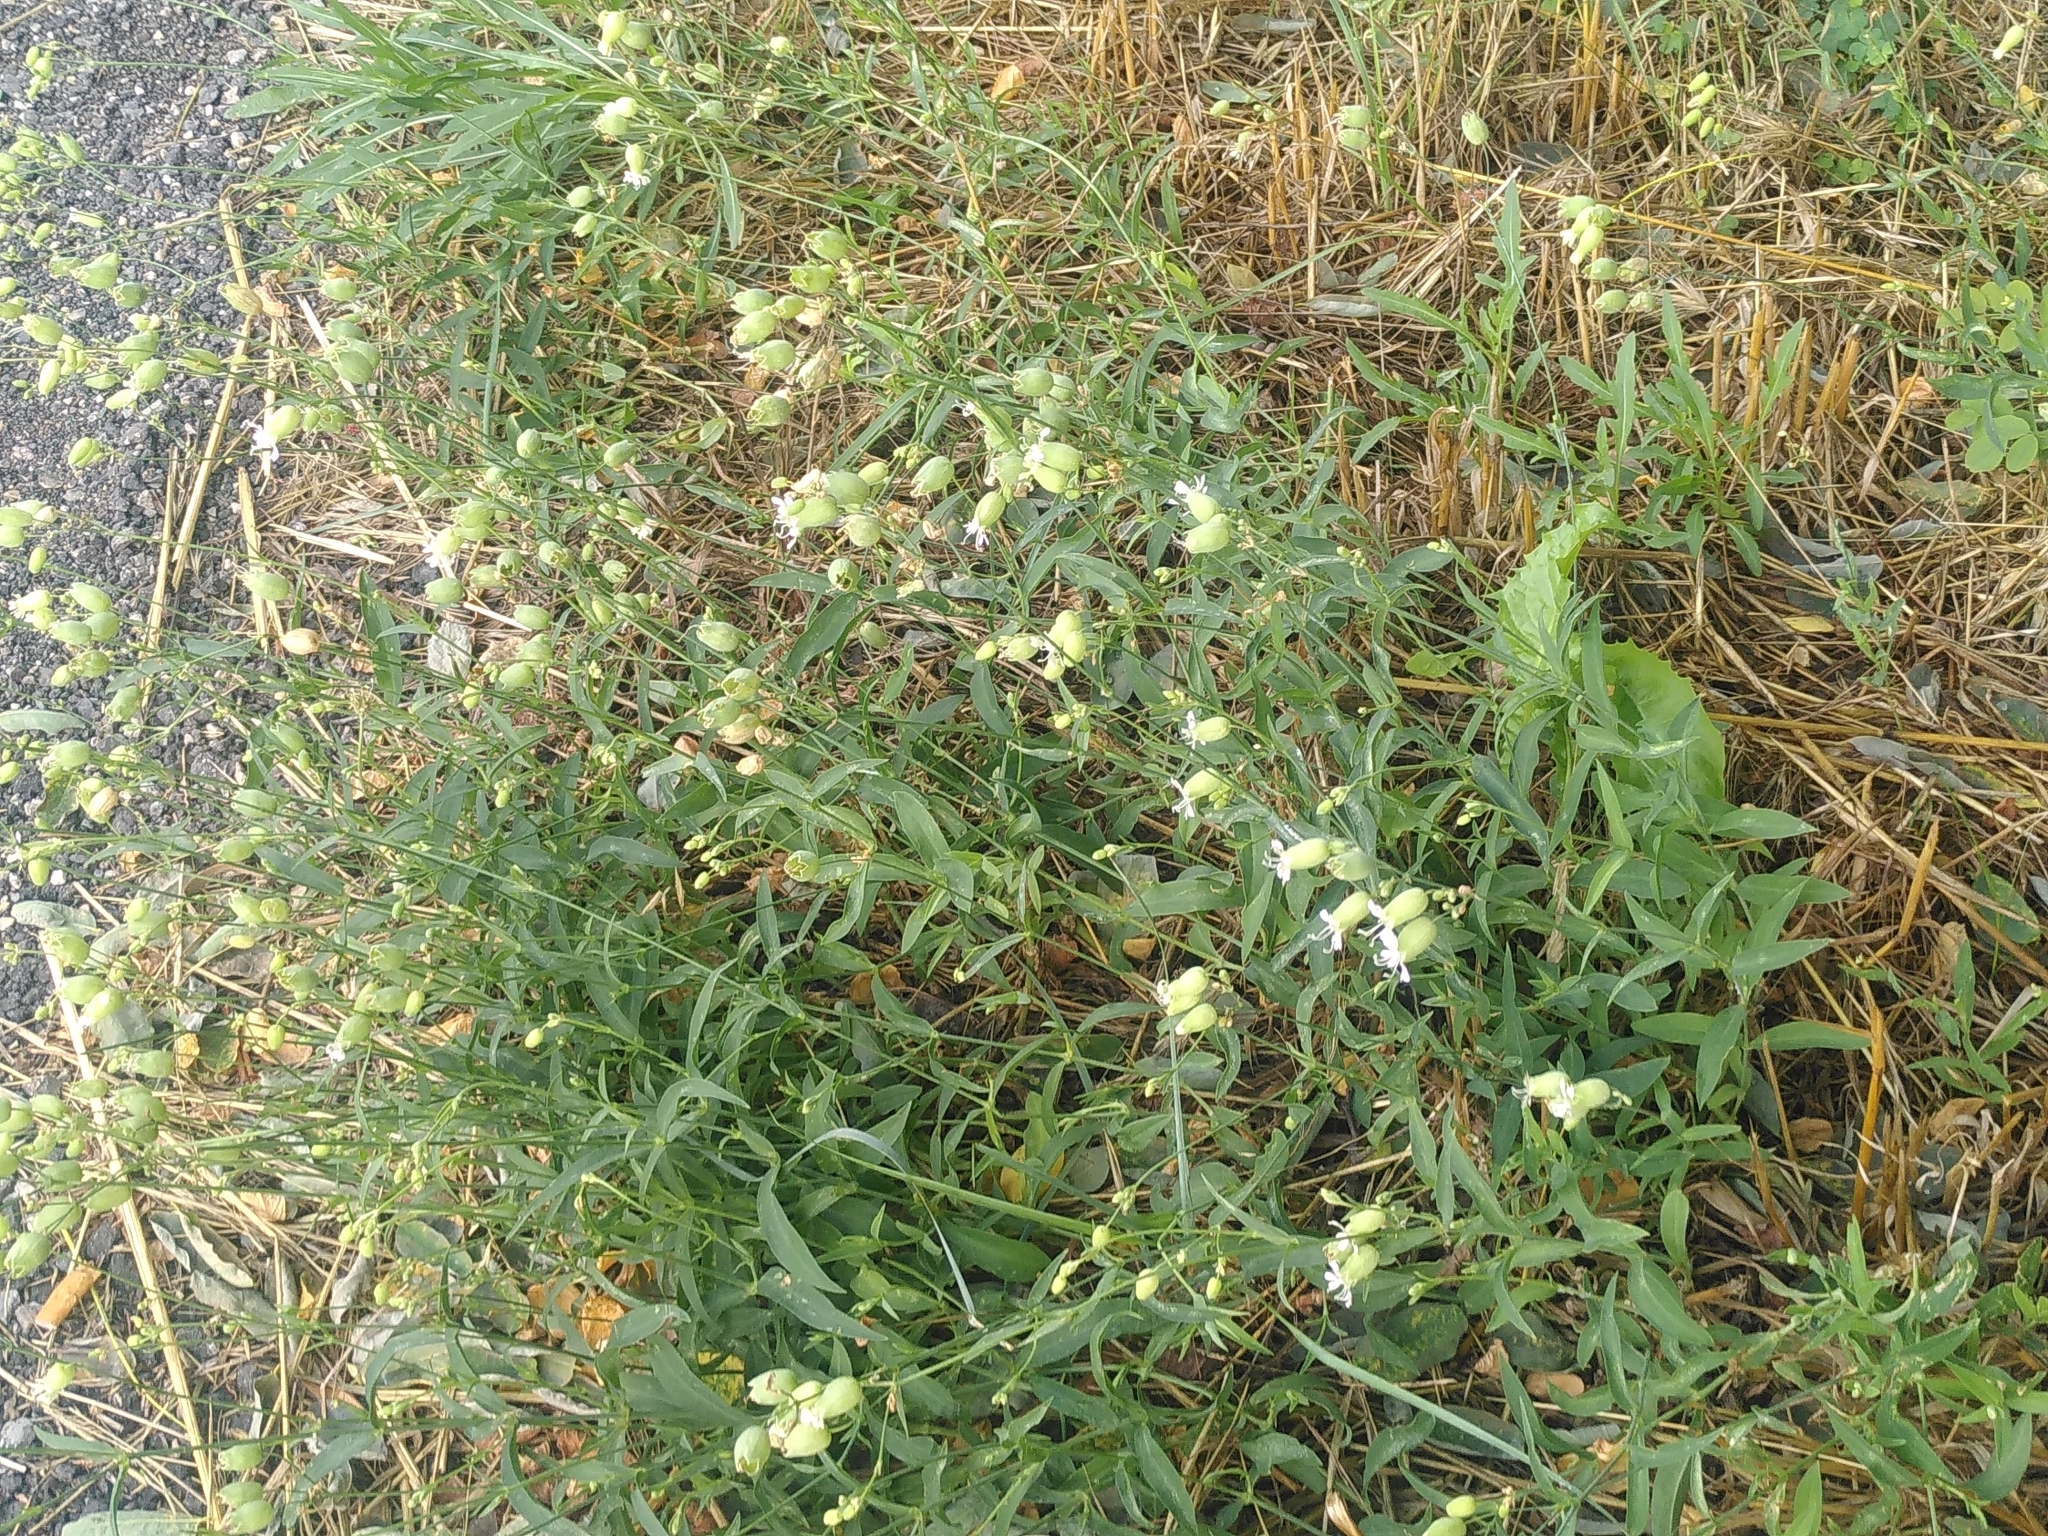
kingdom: Plantae
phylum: Tracheophyta
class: Magnoliopsida
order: Caryophyllales
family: Caryophyllaceae
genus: Silene
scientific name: Silene vulgaris
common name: Bladder campion
